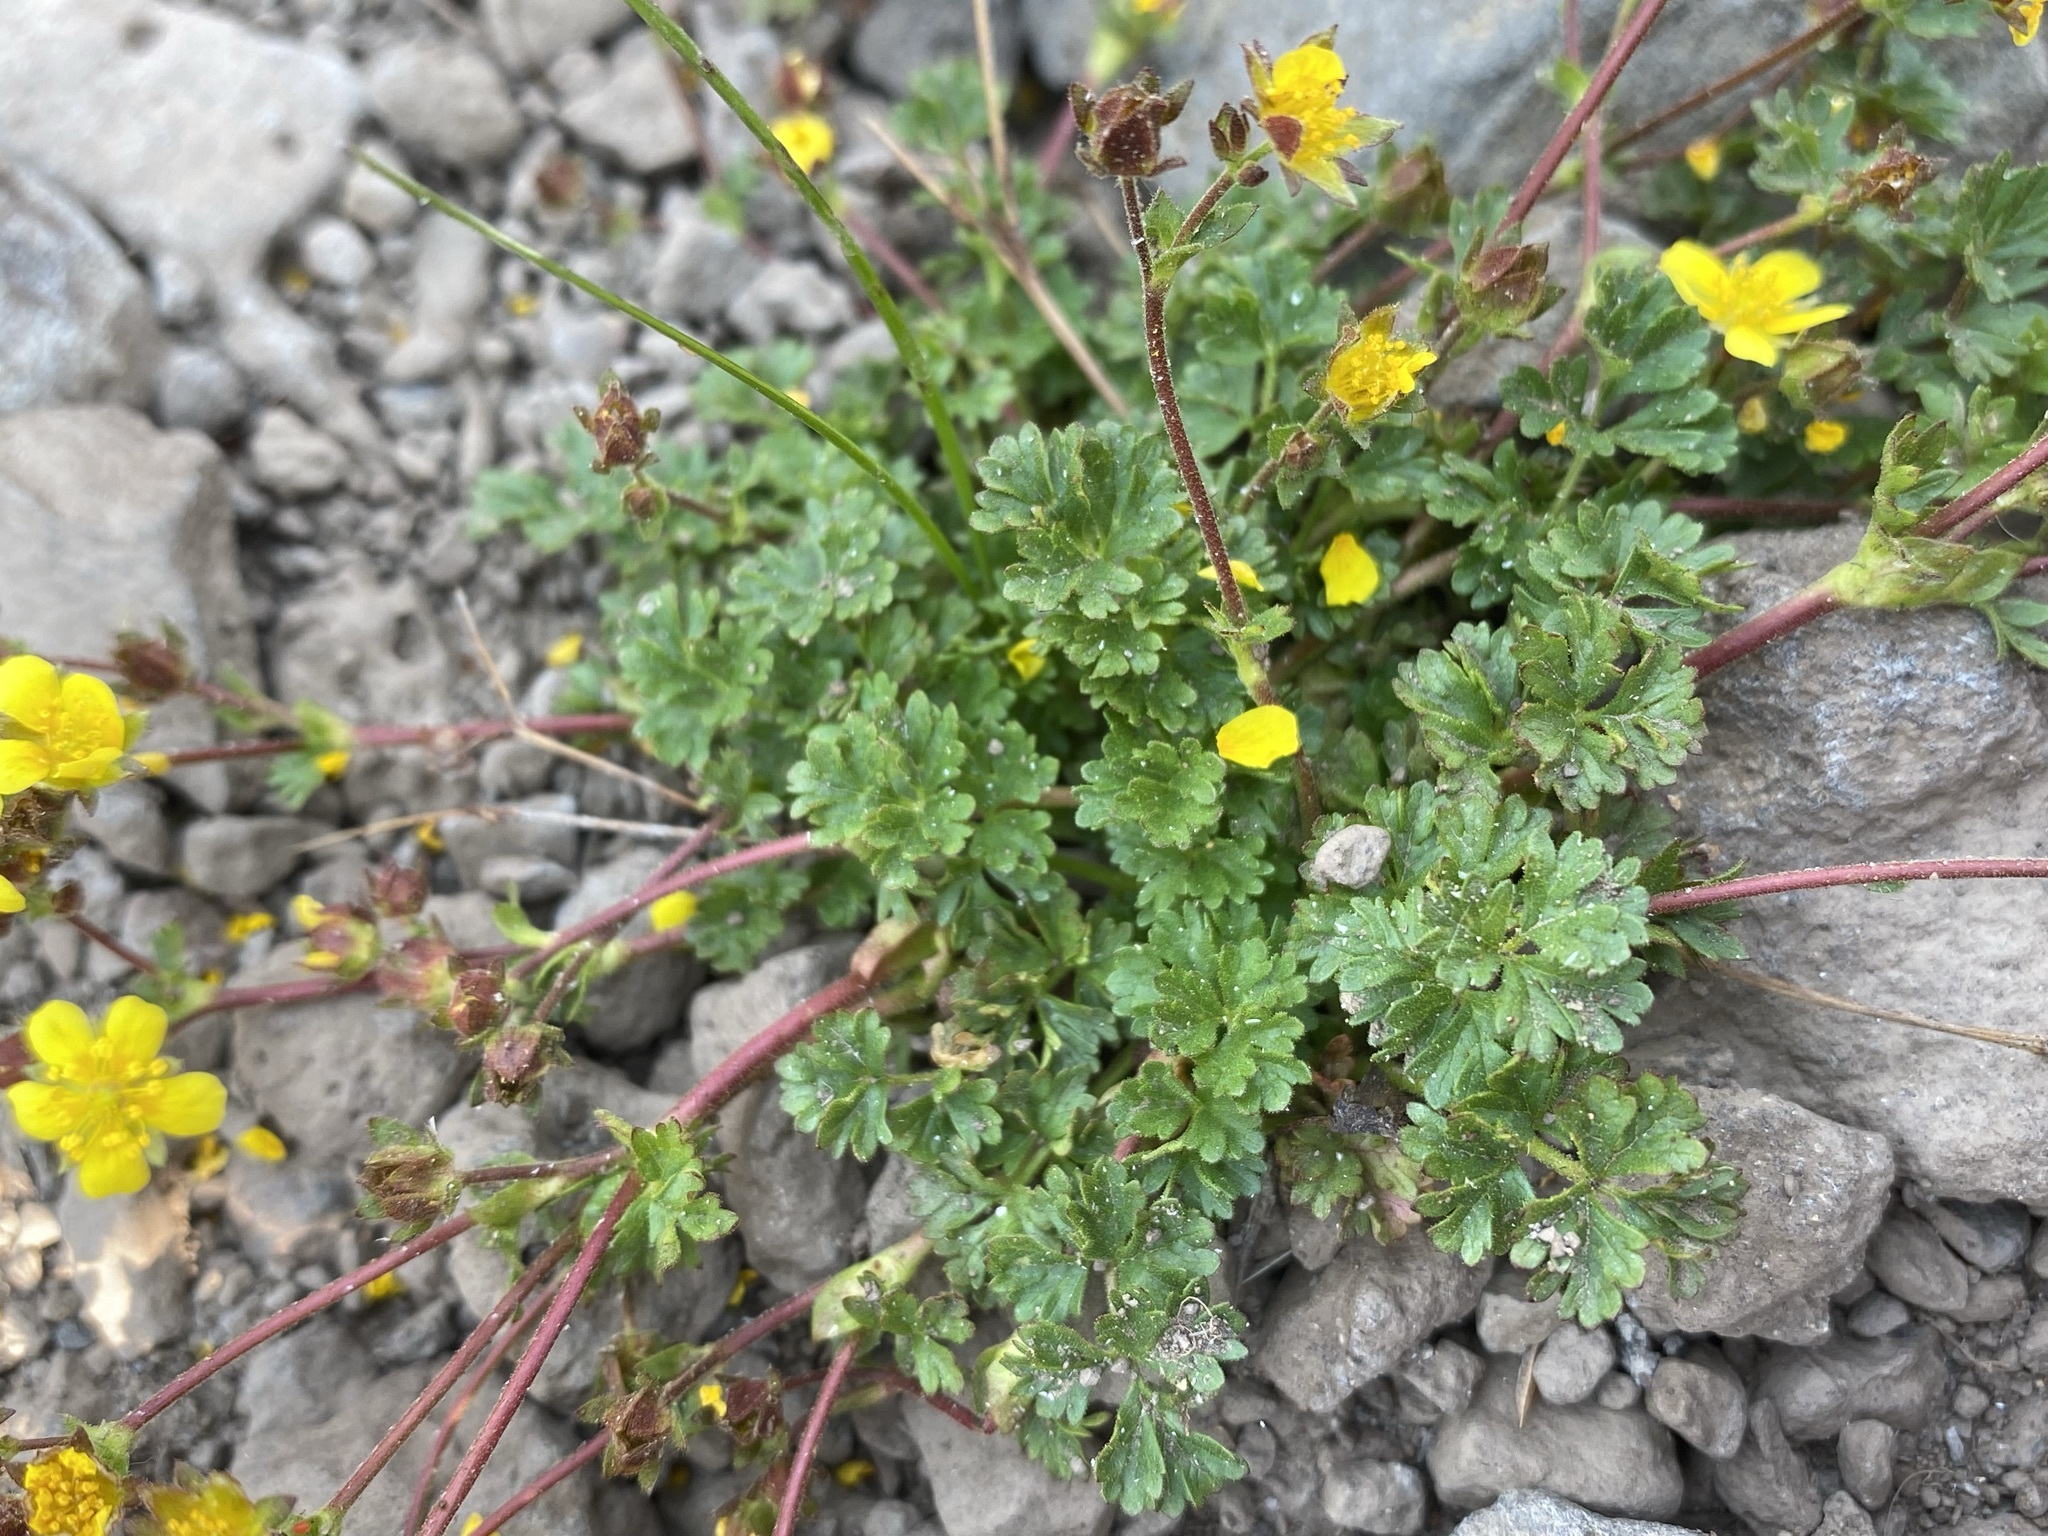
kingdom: Plantae
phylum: Tracheophyta
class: Magnoliopsida
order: Rosales
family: Rosaceae
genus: Potentilla
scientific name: Potentilla brevifolia
